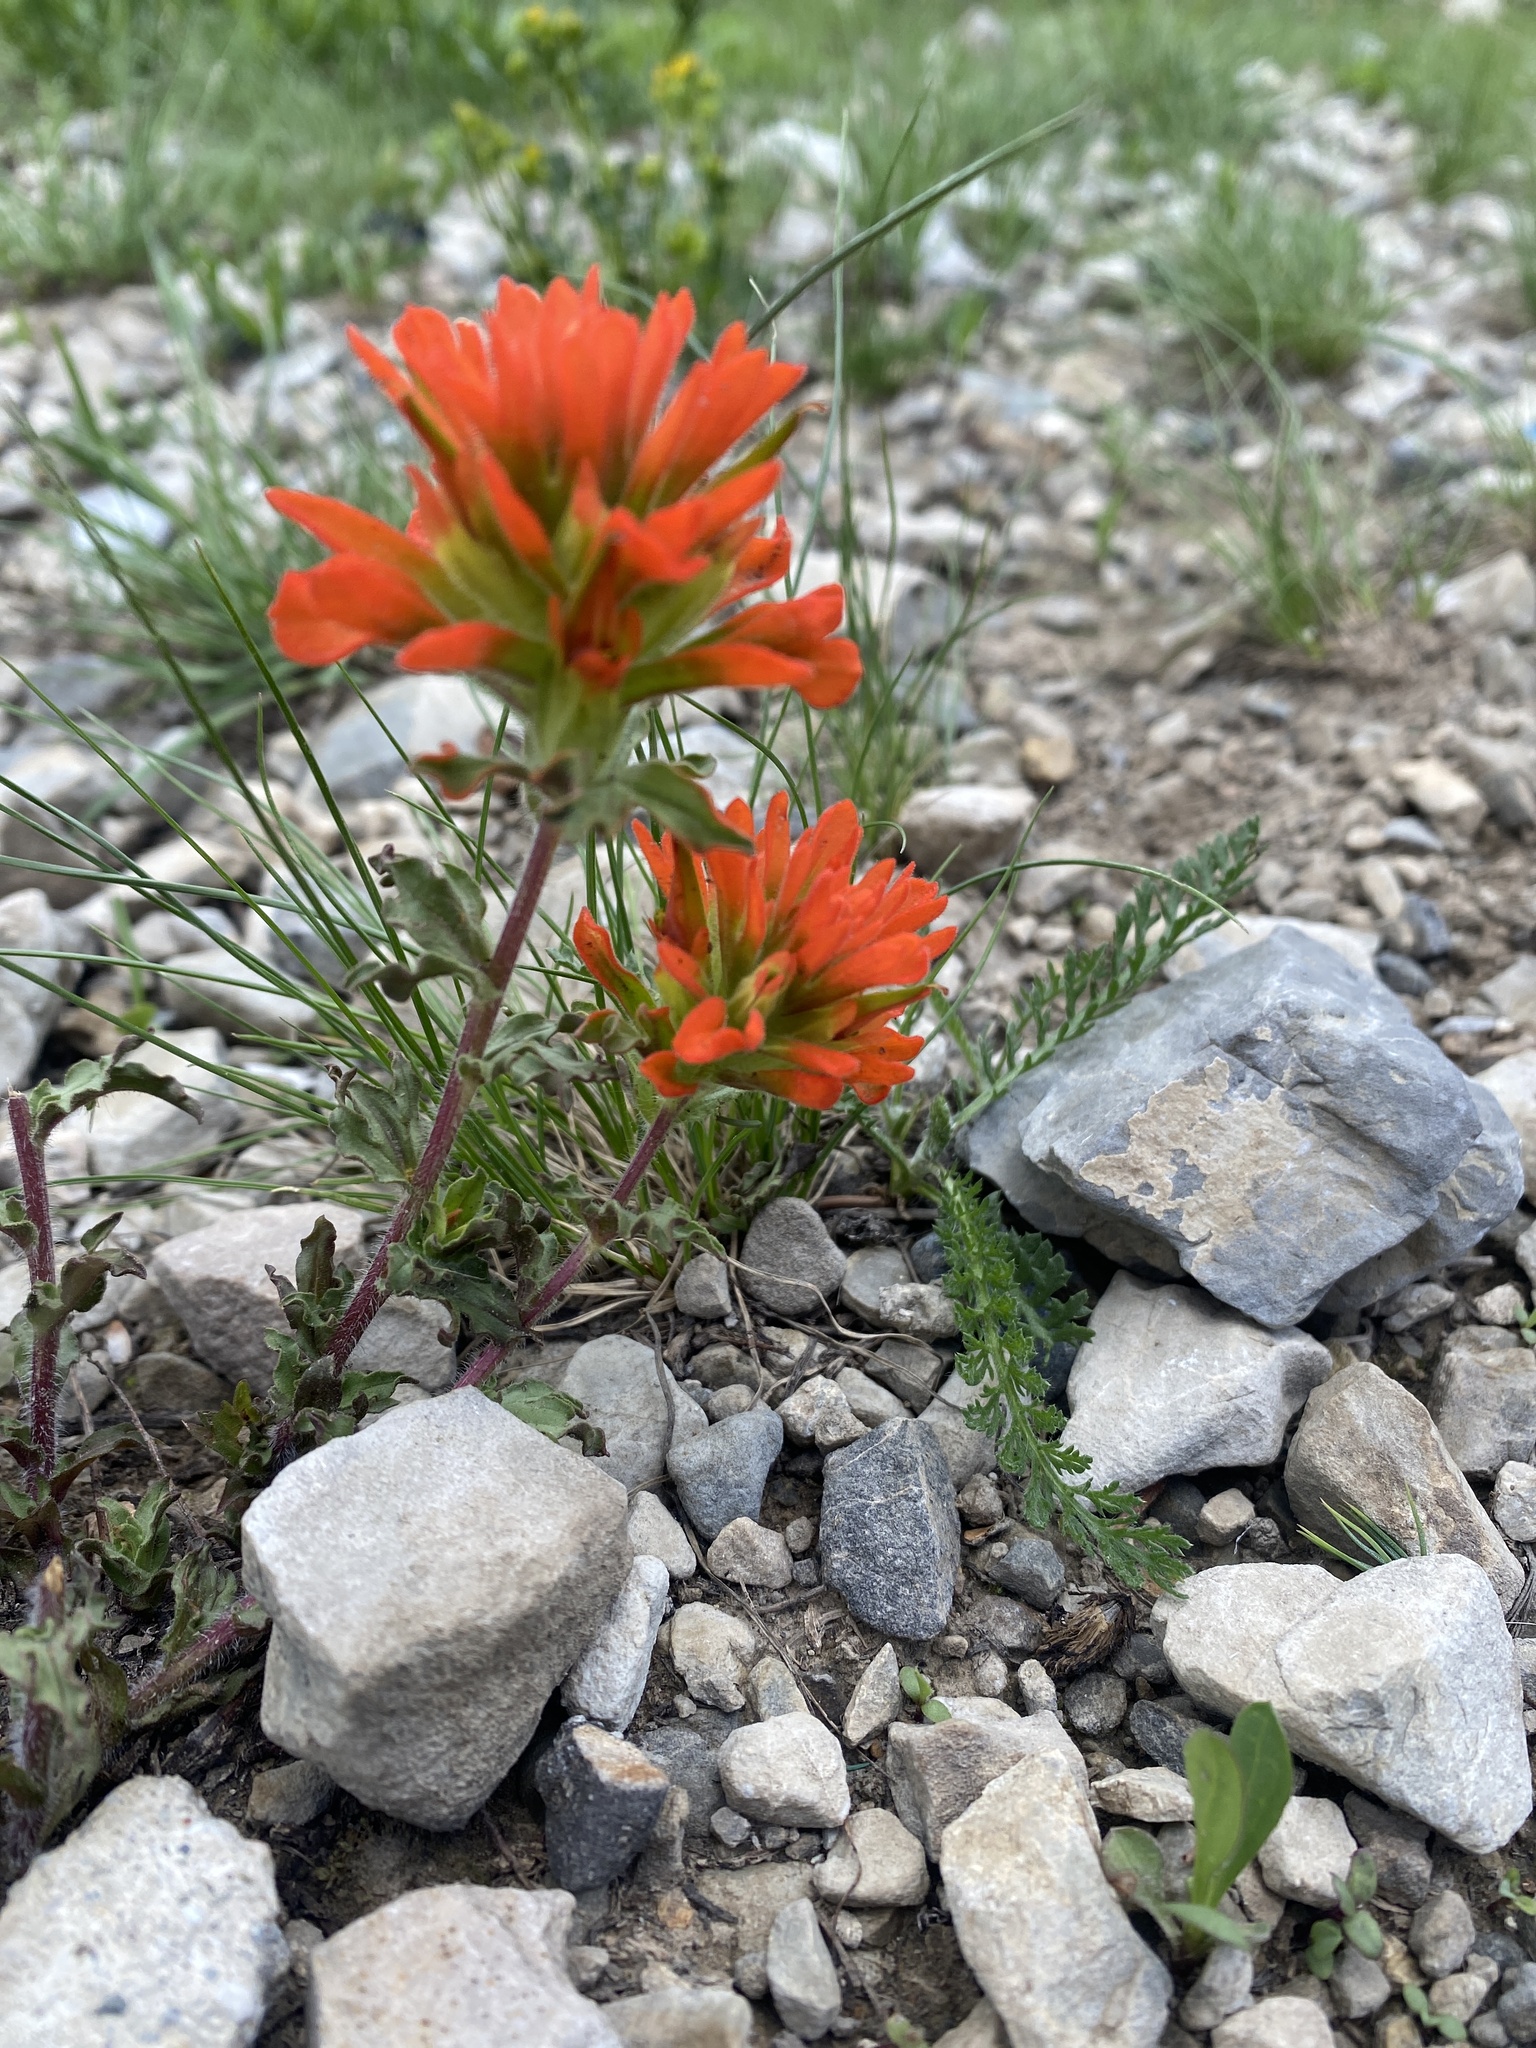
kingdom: Plantae
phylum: Tracheophyta
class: Magnoliopsida
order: Lamiales
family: Orobanchaceae
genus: Castilleja
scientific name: Castilleja applegatei
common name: Wavy-leaf paintbrush
